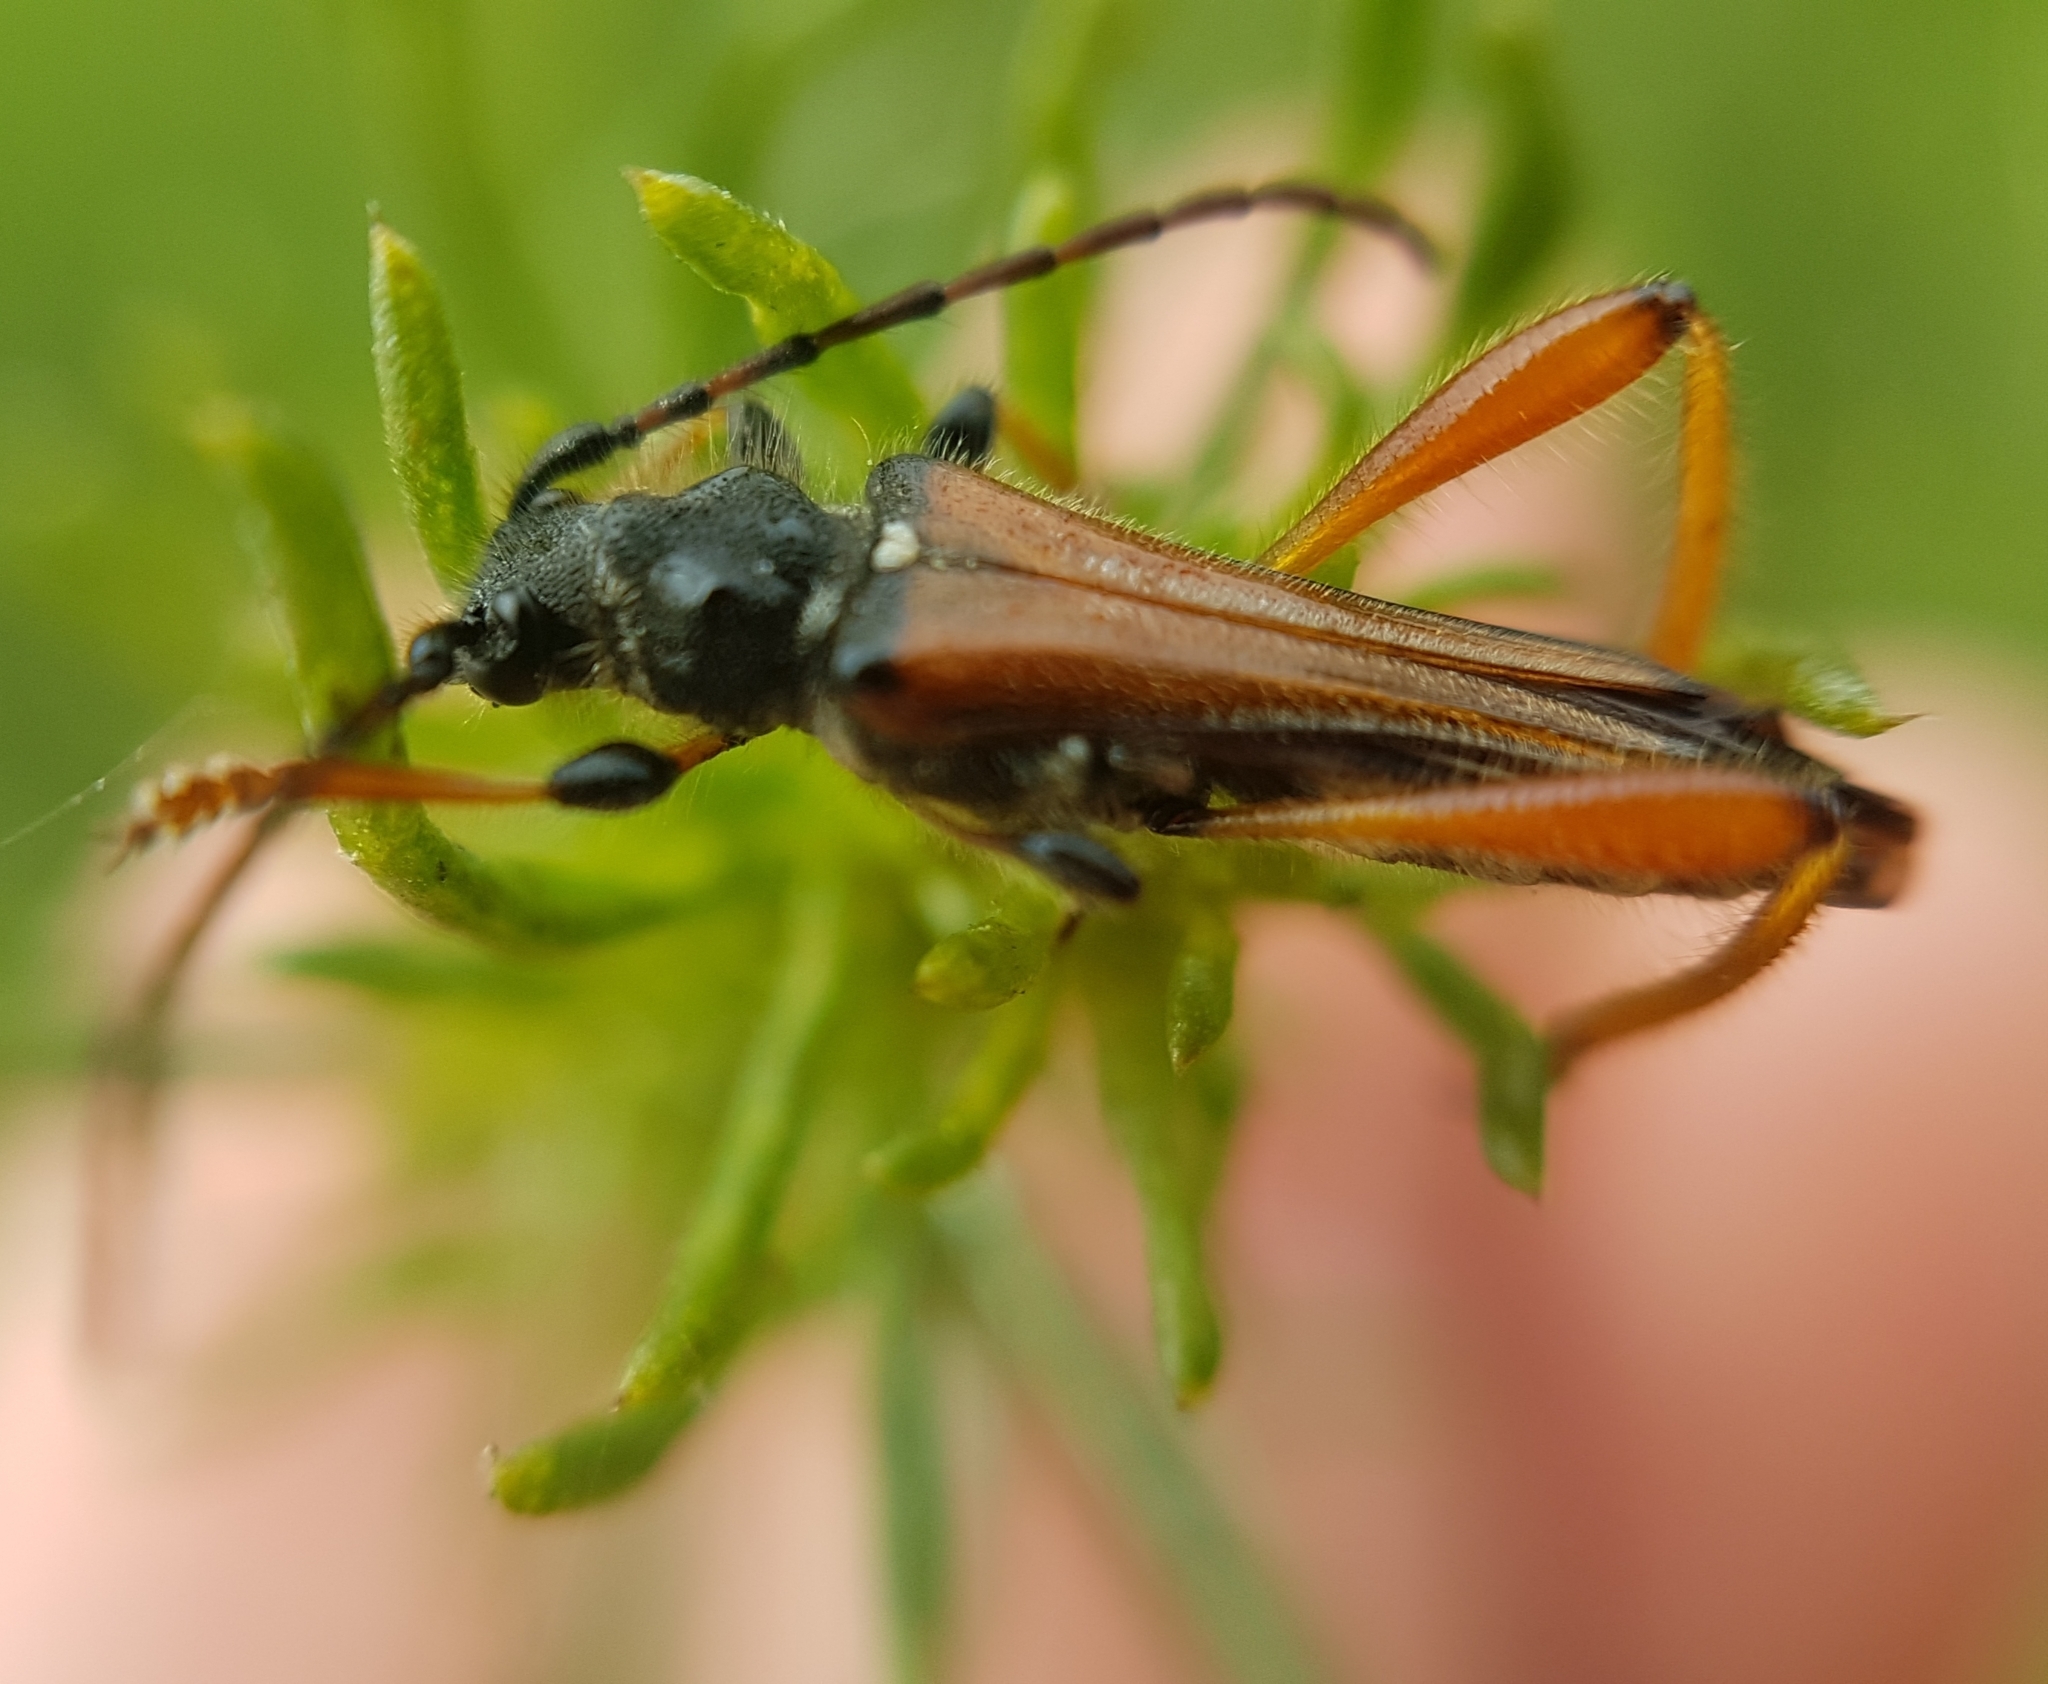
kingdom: Animalia
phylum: Arthropoda
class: Insecta
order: Coleoptera
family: Cerambycidae
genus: Stenopterus
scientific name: Stenopterus rufus
